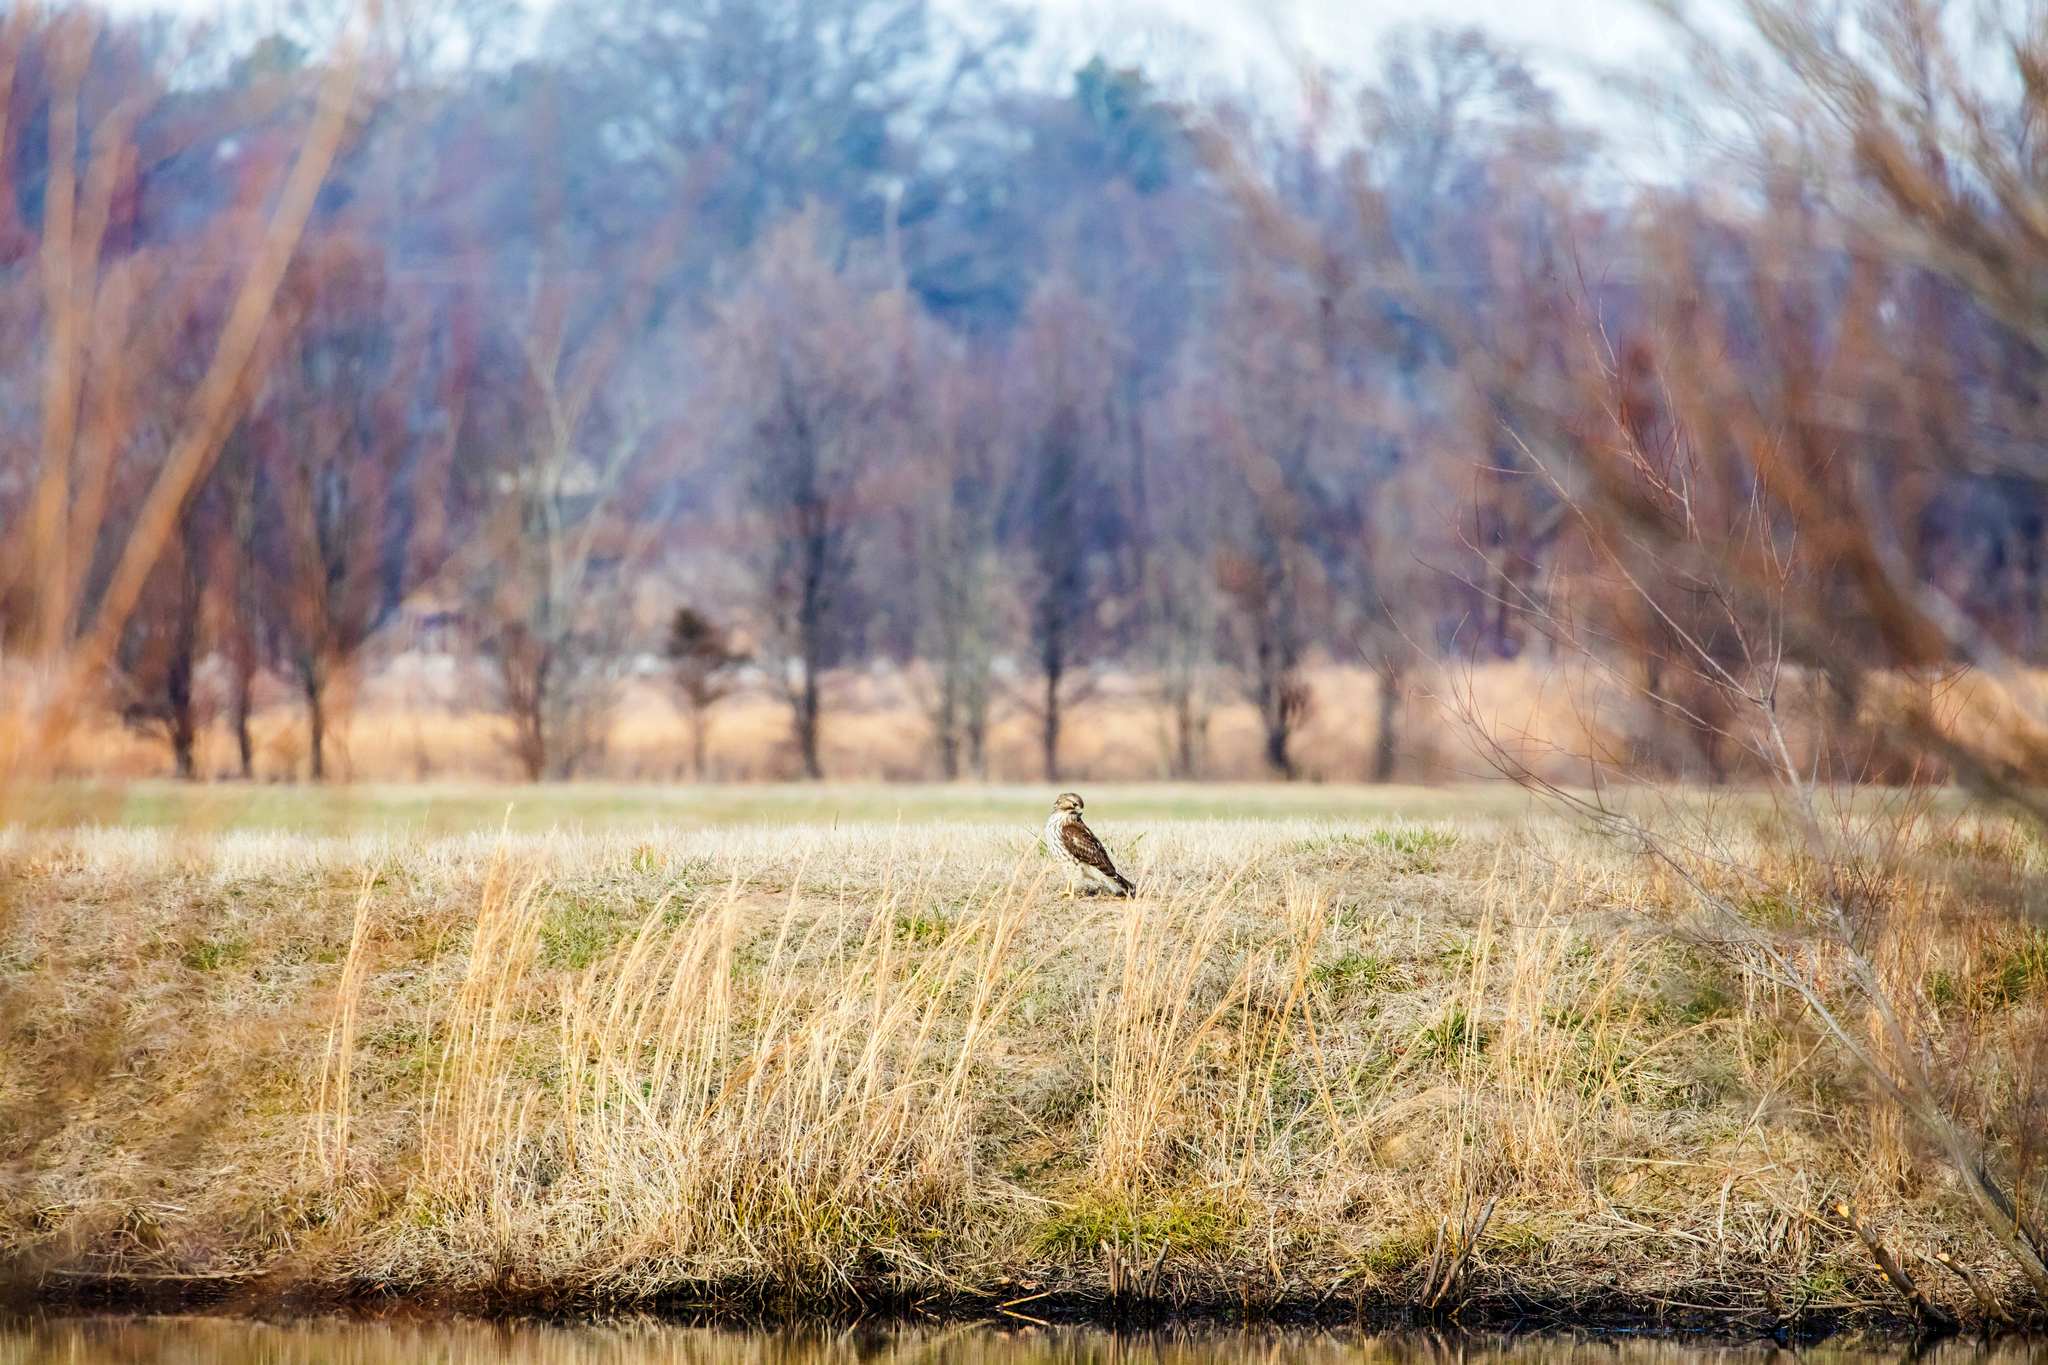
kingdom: Animalia
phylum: Chordata
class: Aves
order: Accipitriformes
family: Accipitridae
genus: Buteo
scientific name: Buteo lineatus
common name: Red-shouldered hawk
